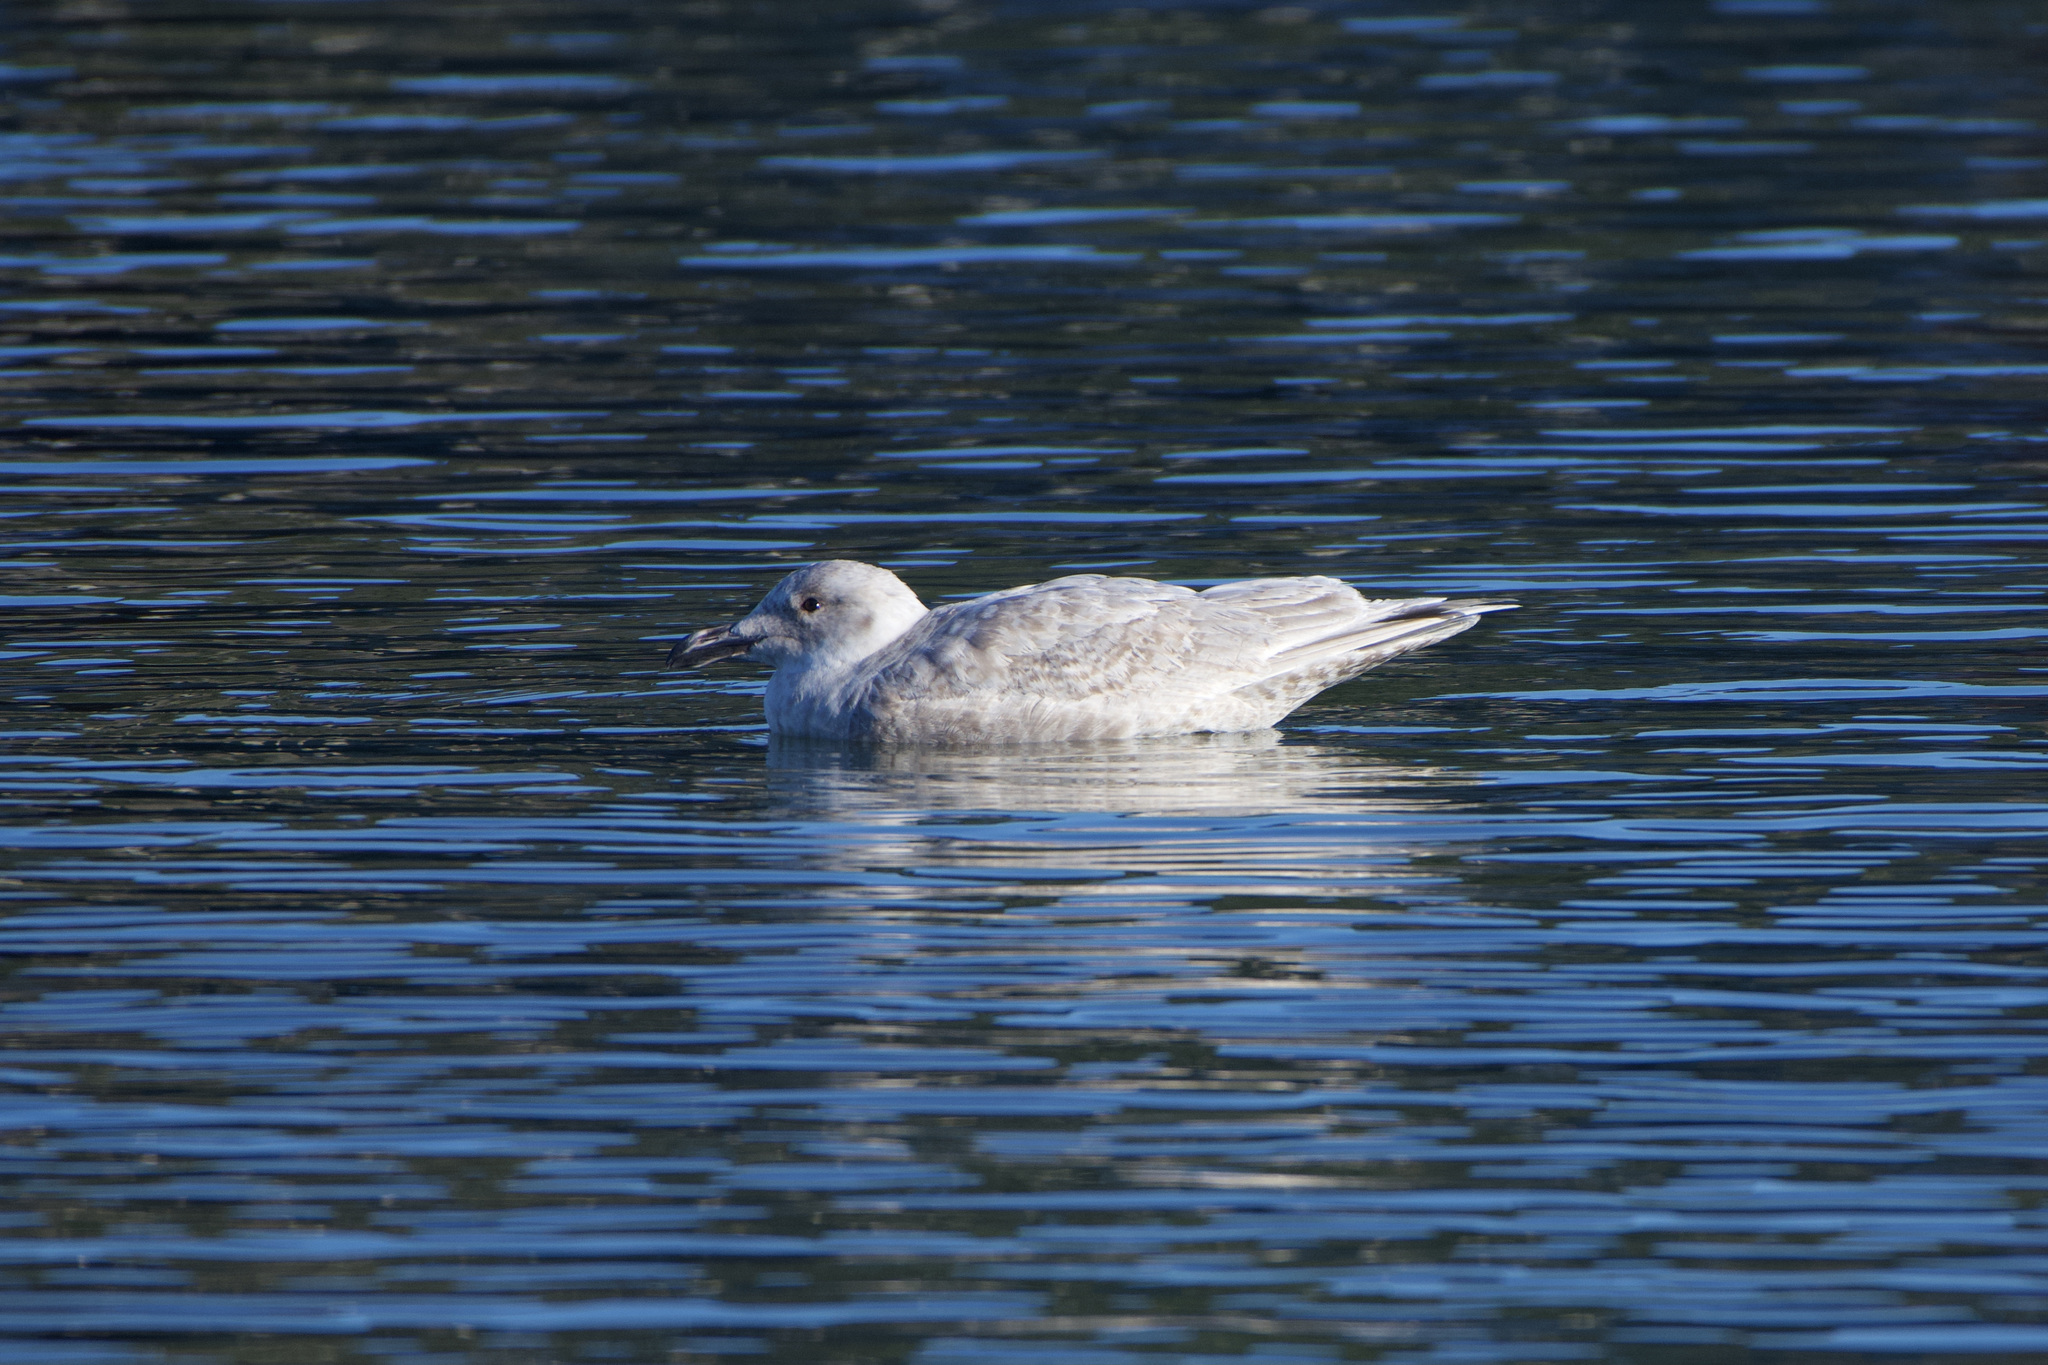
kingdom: Animalia
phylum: Chordata
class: Aves
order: Charadriiformes
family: Laridae
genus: Larus
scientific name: Larus glaucescens
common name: Glaucous-winged gull
